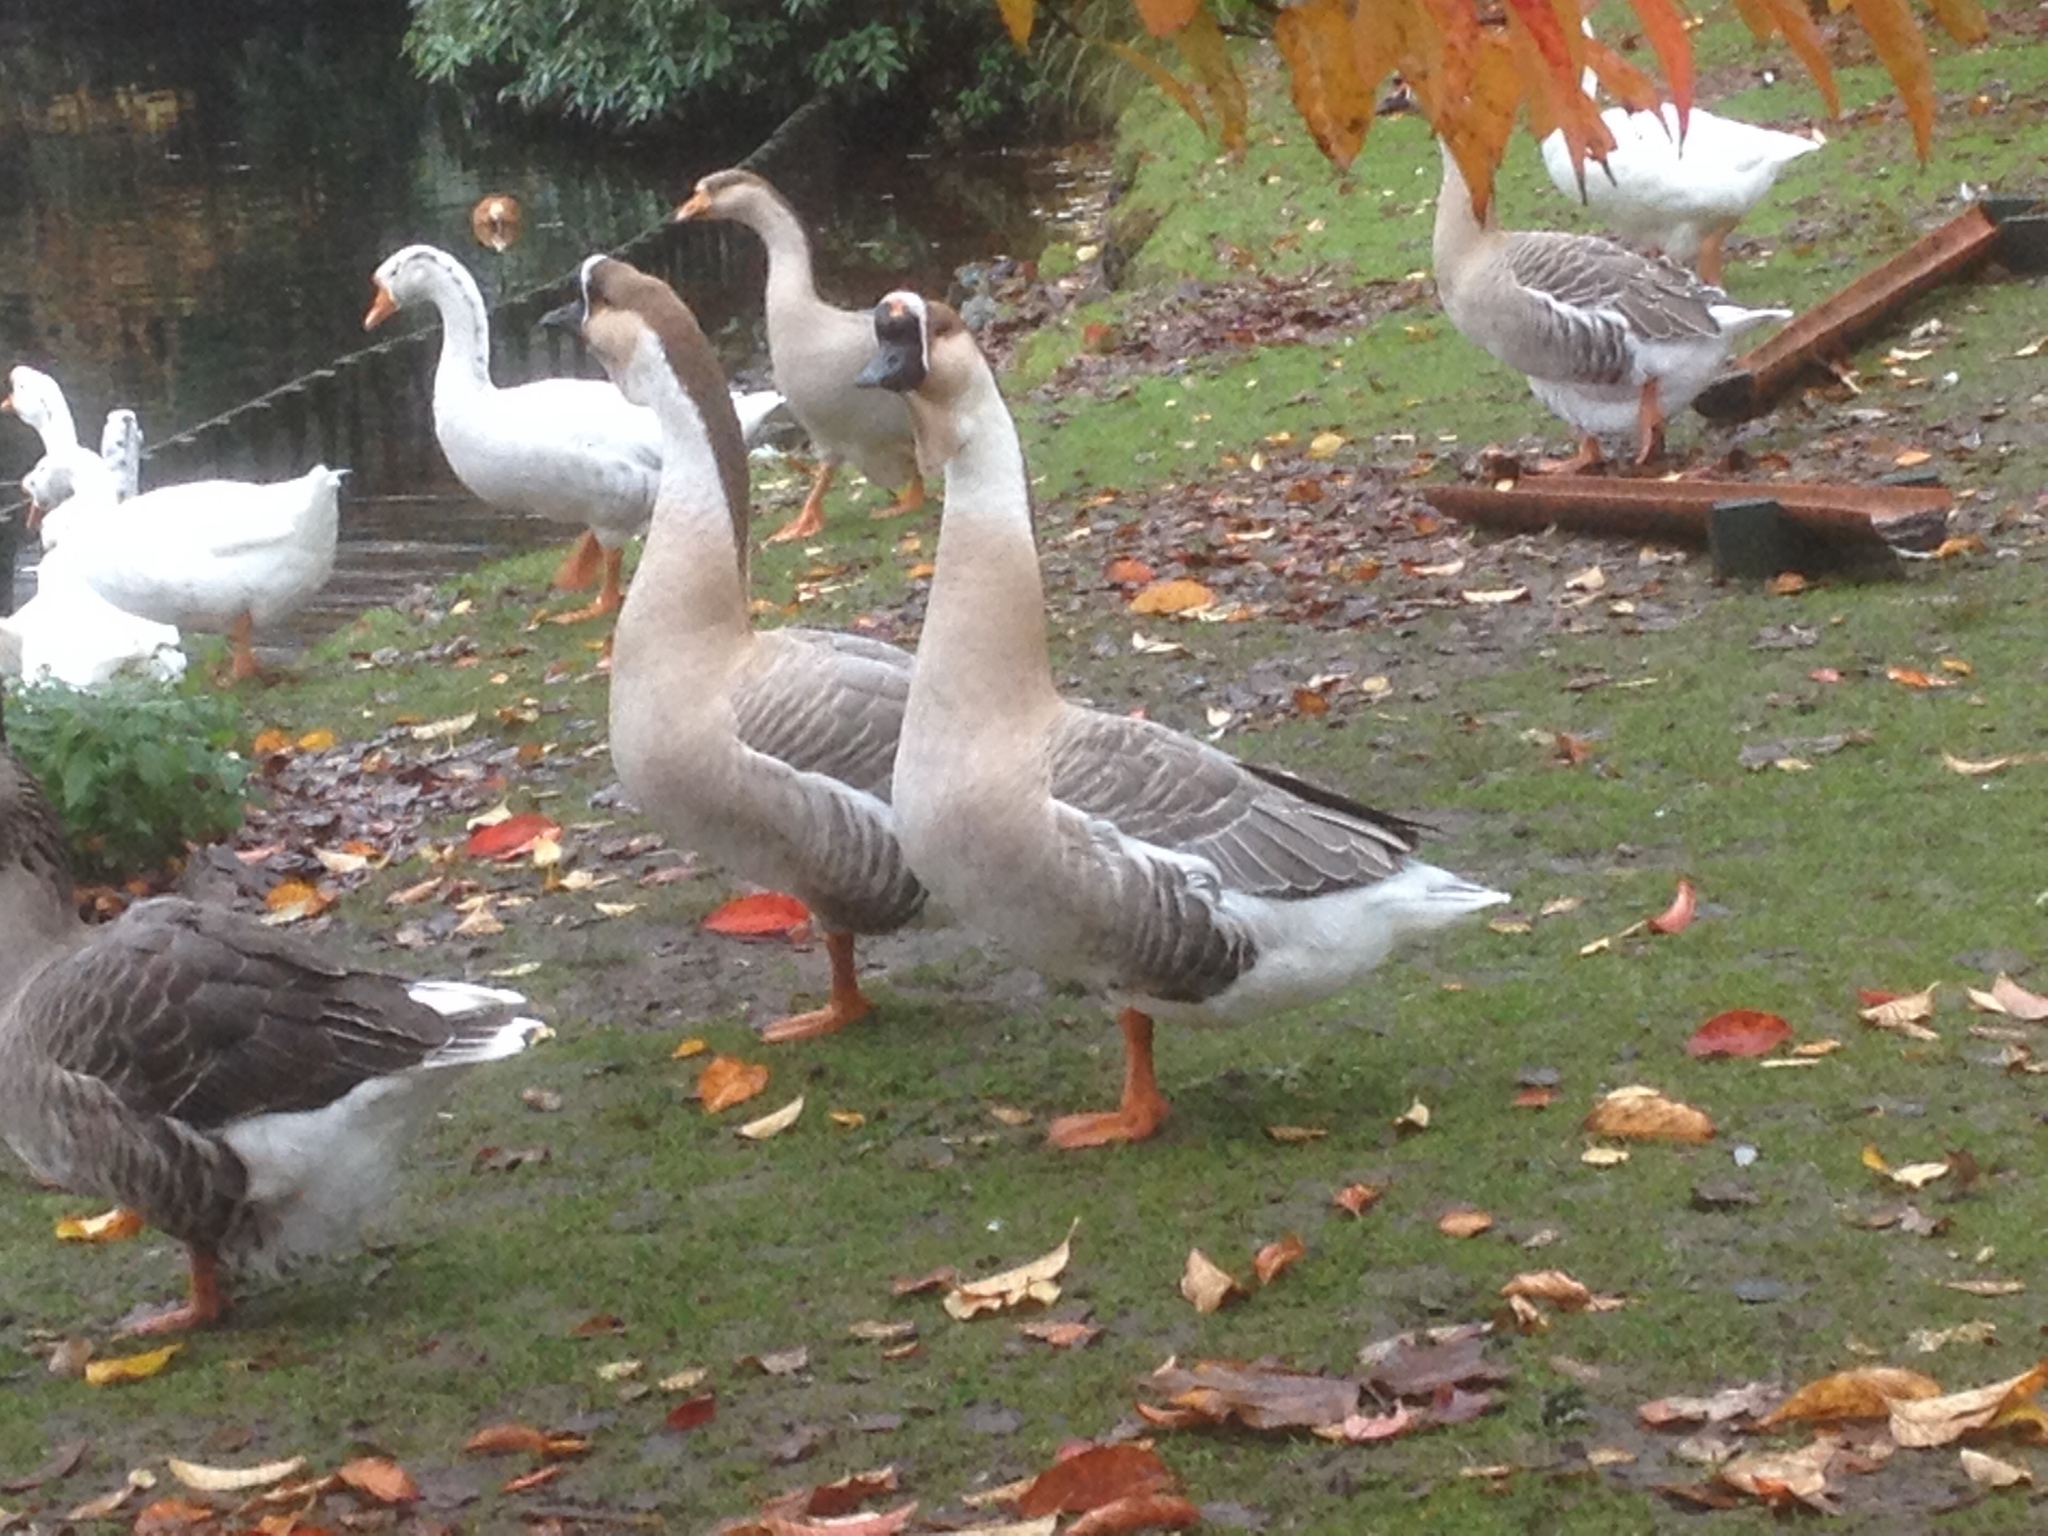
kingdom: Animalia
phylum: Chordata
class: Aves
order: Anseriformes
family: Anatidae
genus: Anser
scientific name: Anser cygnoides
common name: Swan goose
